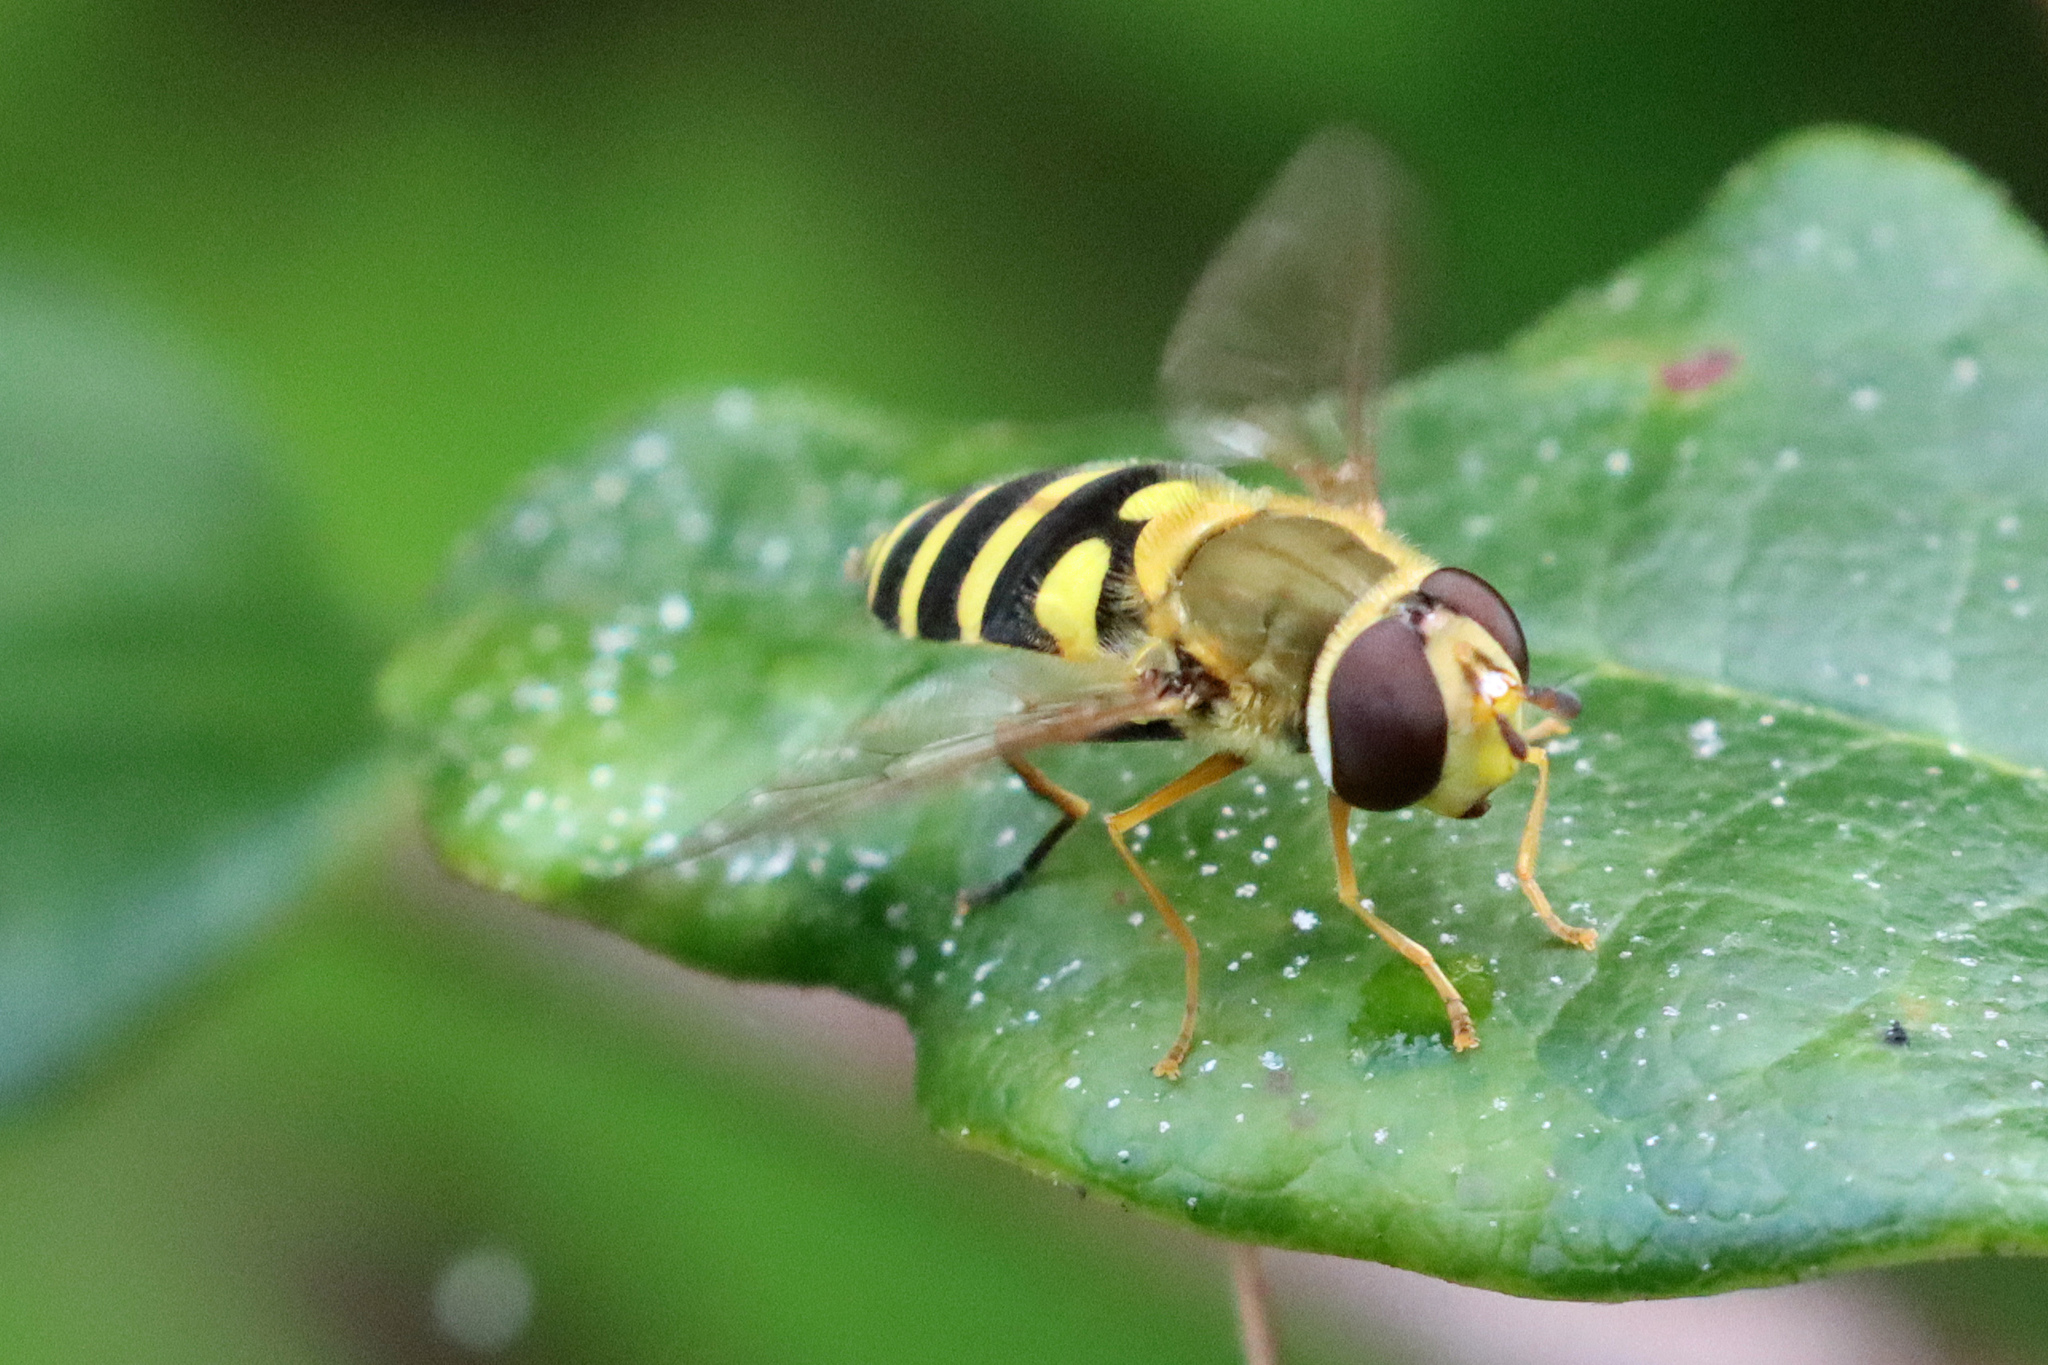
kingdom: Animalia
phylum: Arthropoda
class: Insecta
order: Diptera
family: Syrphidae
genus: Syrphus
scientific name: Syrphus
